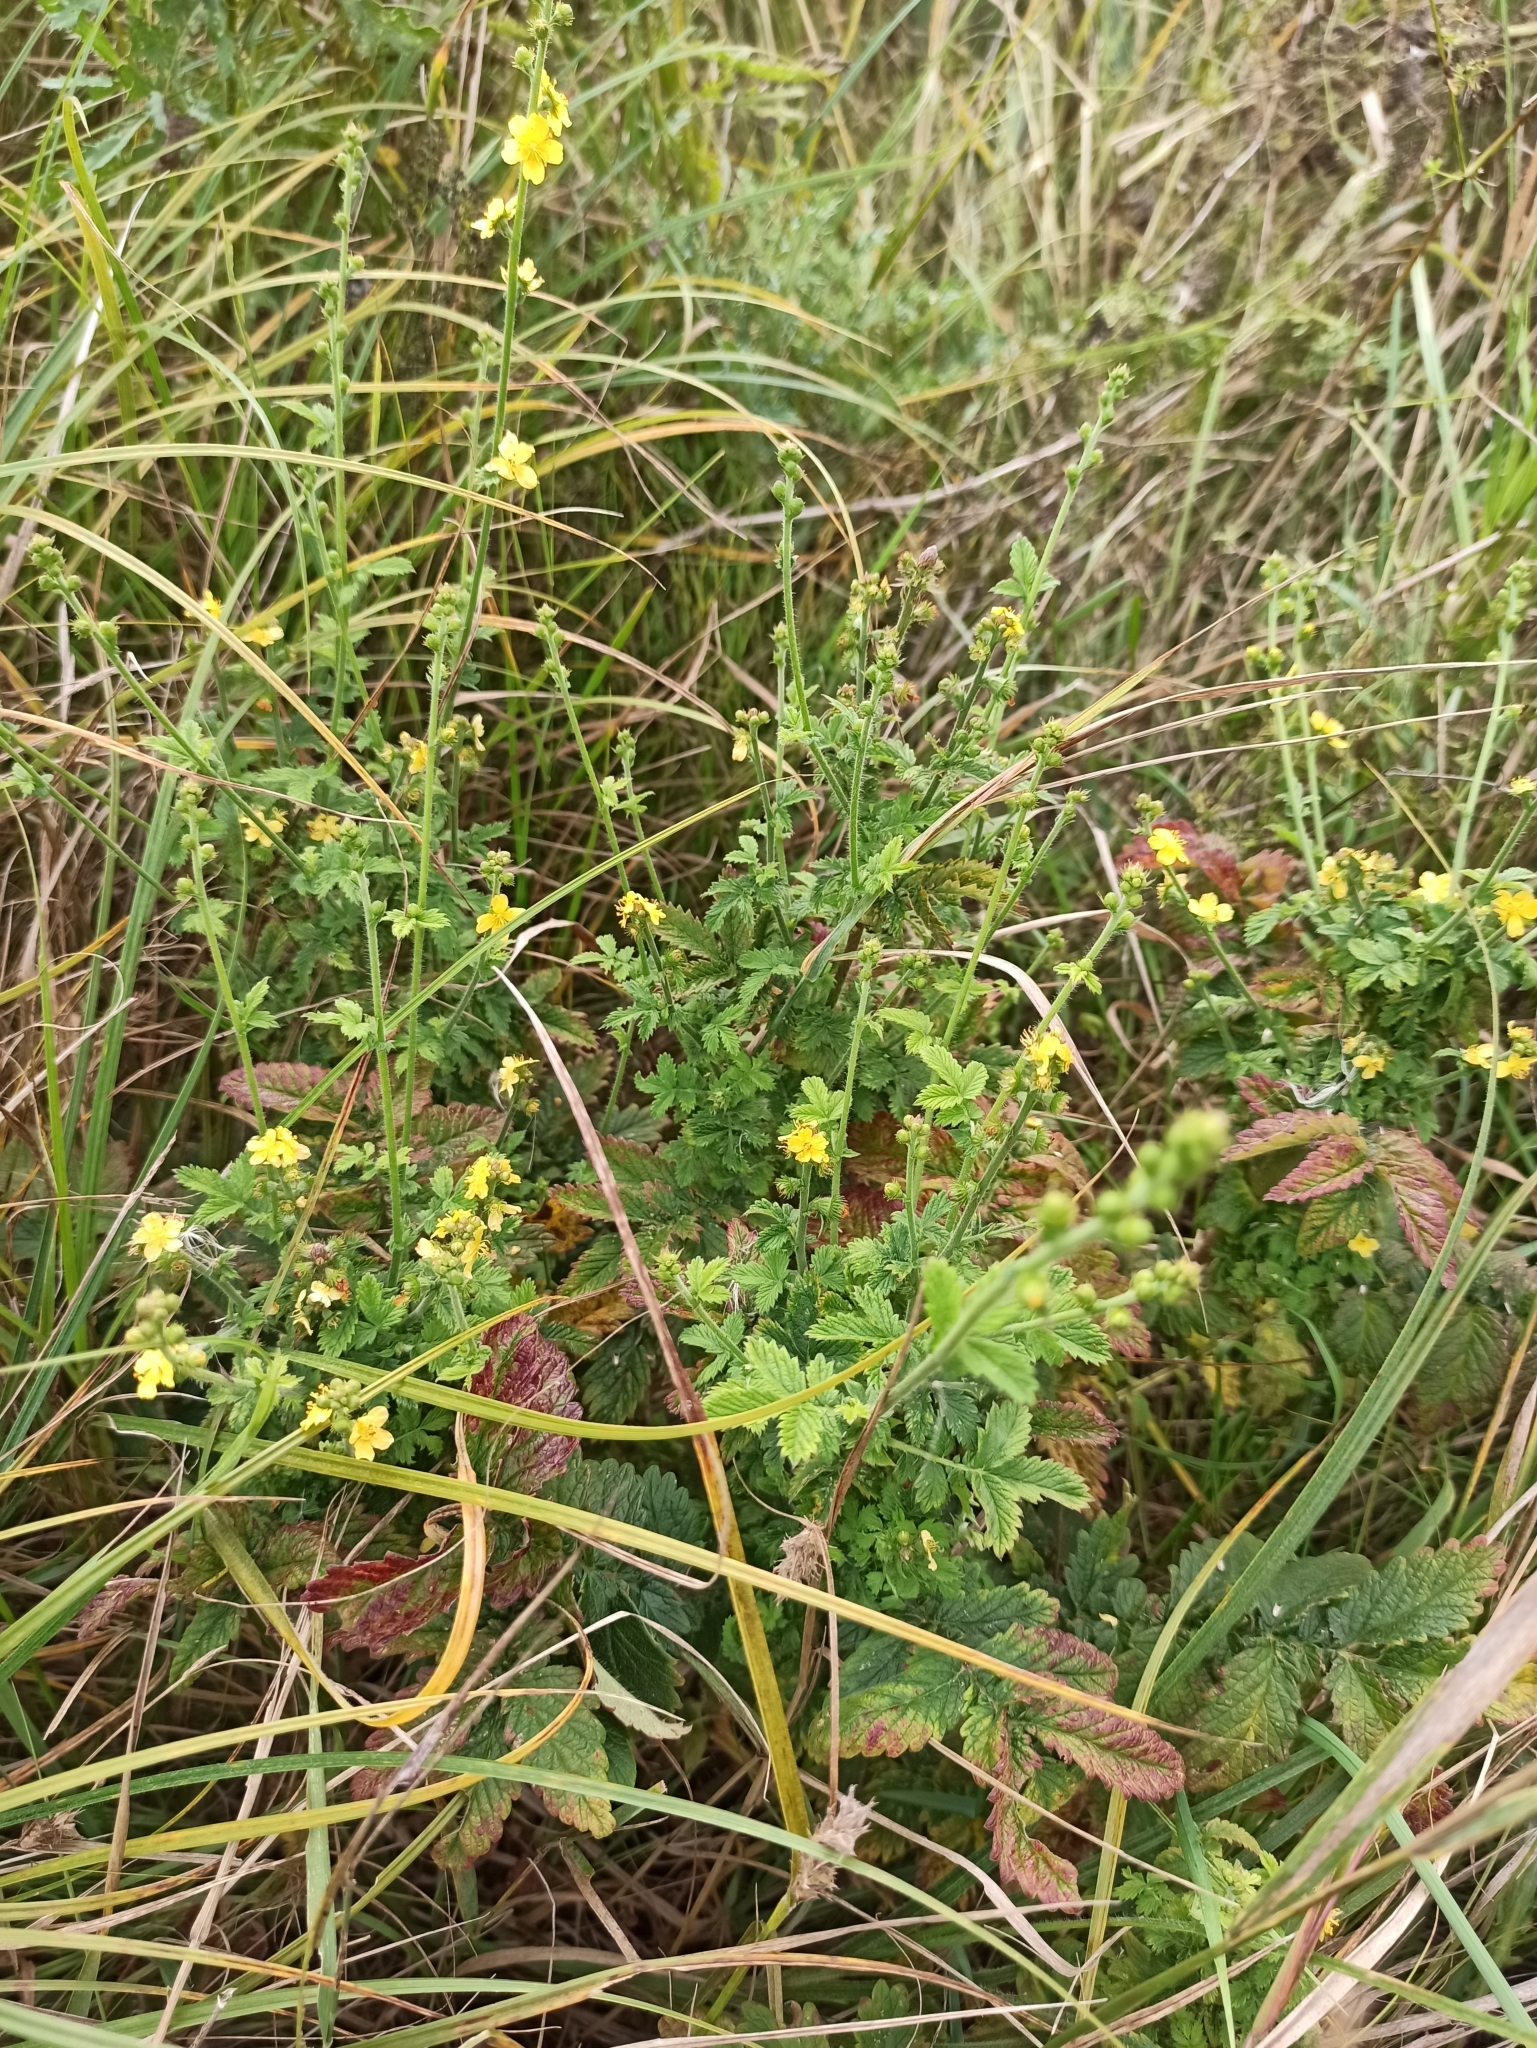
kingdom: Plantae
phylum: Tracheophyta
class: Magnoliopsida
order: Rosales
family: Rosaceae
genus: Agrimonia
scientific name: Agrimonia eupatoria
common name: Agrimony
